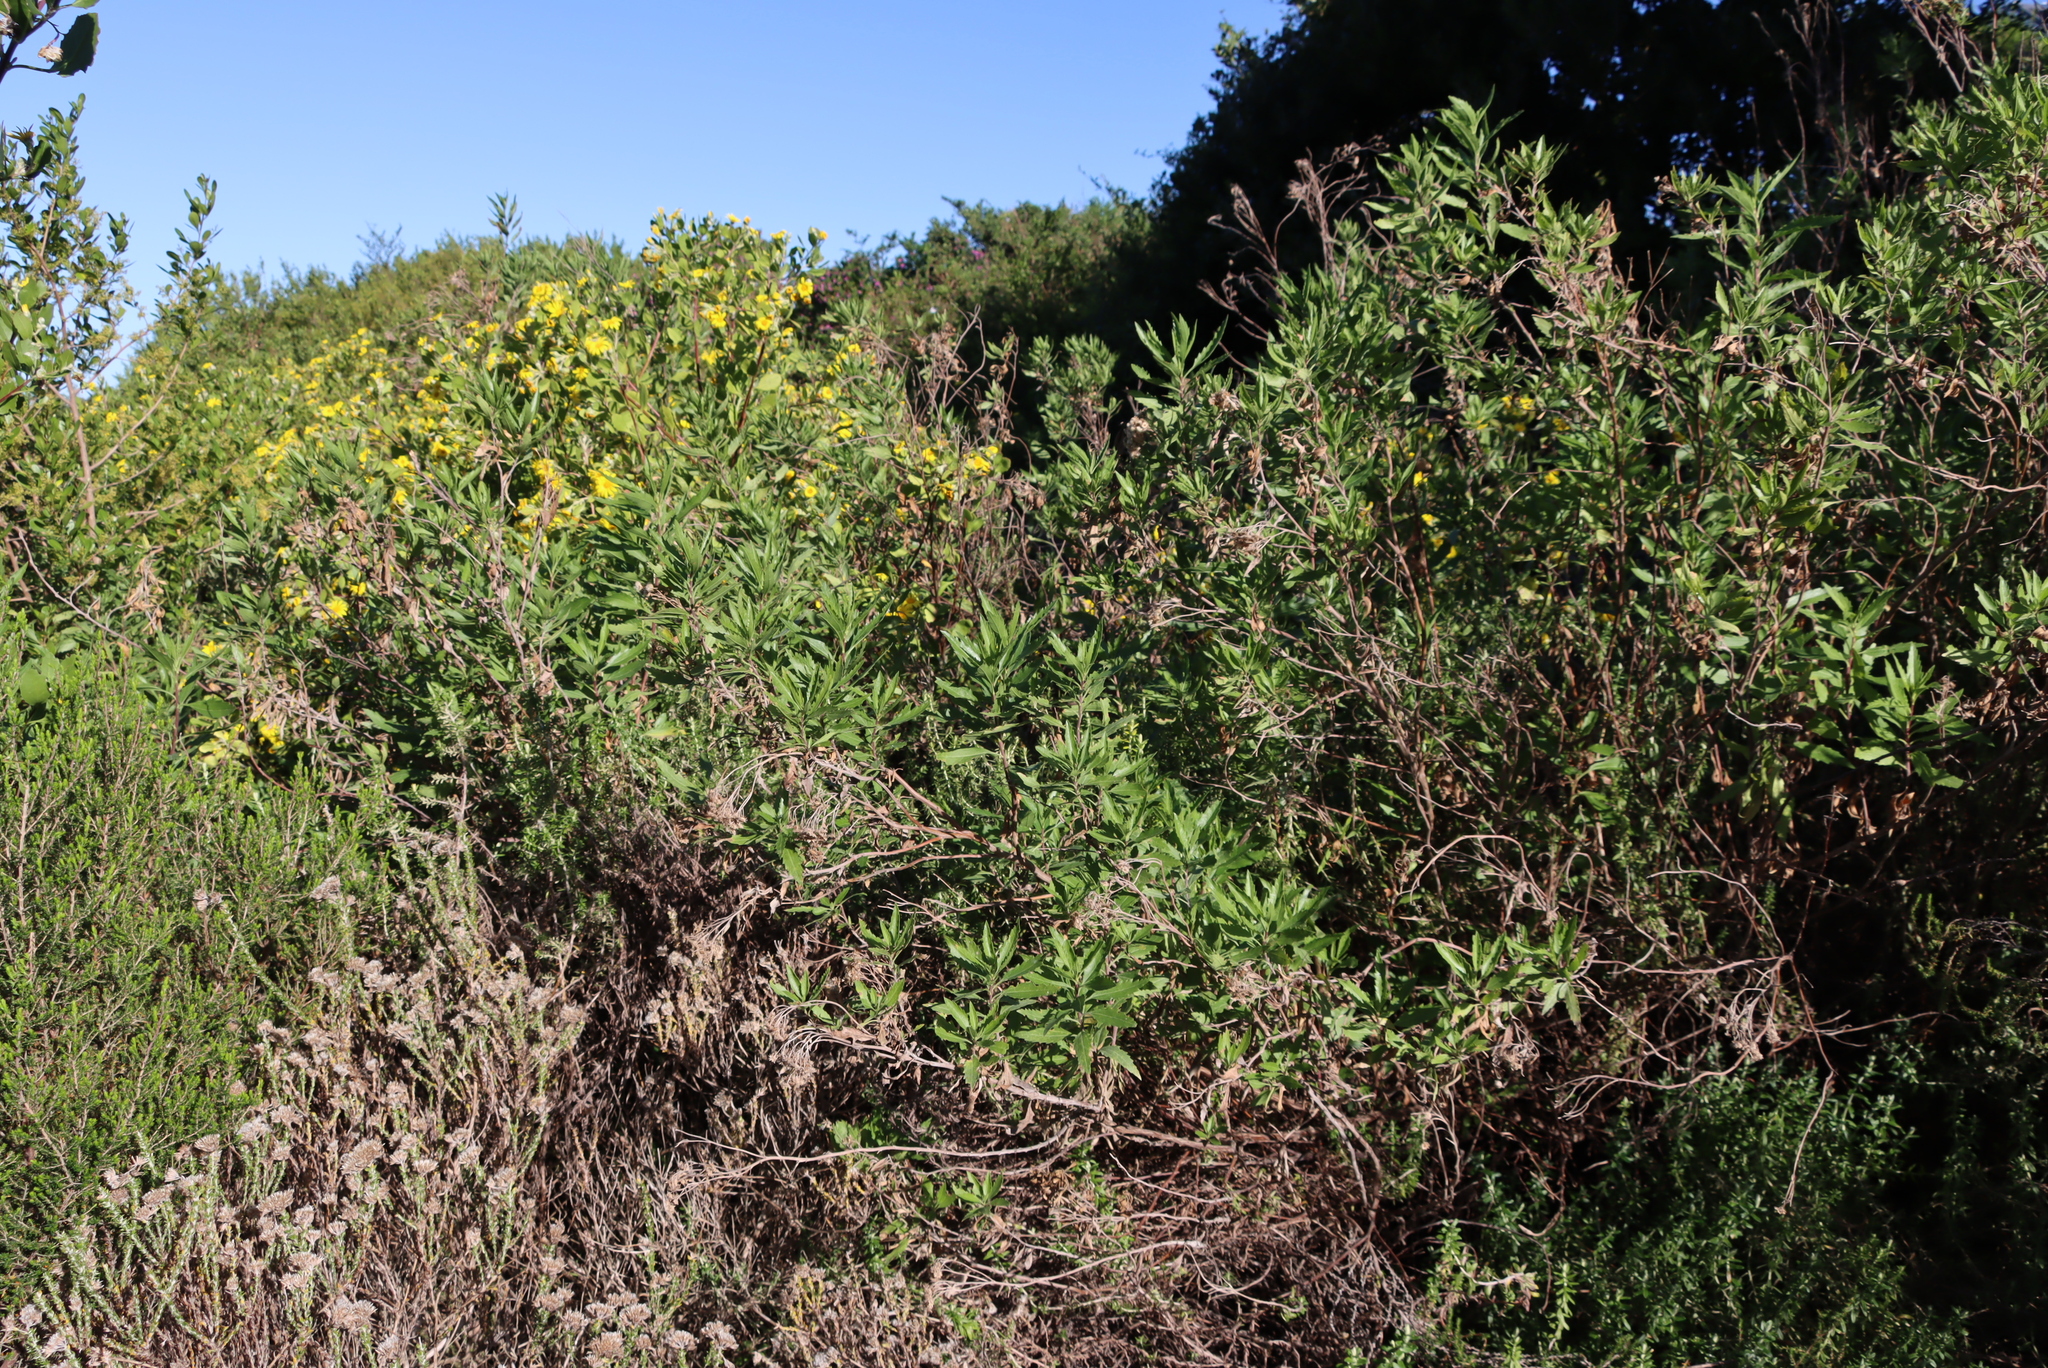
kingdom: Plantae
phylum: Tracheophyta
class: Magnoliopsida
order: Asterales
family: Asteraceae
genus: Nidorella
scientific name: Nidorella ivifolia
